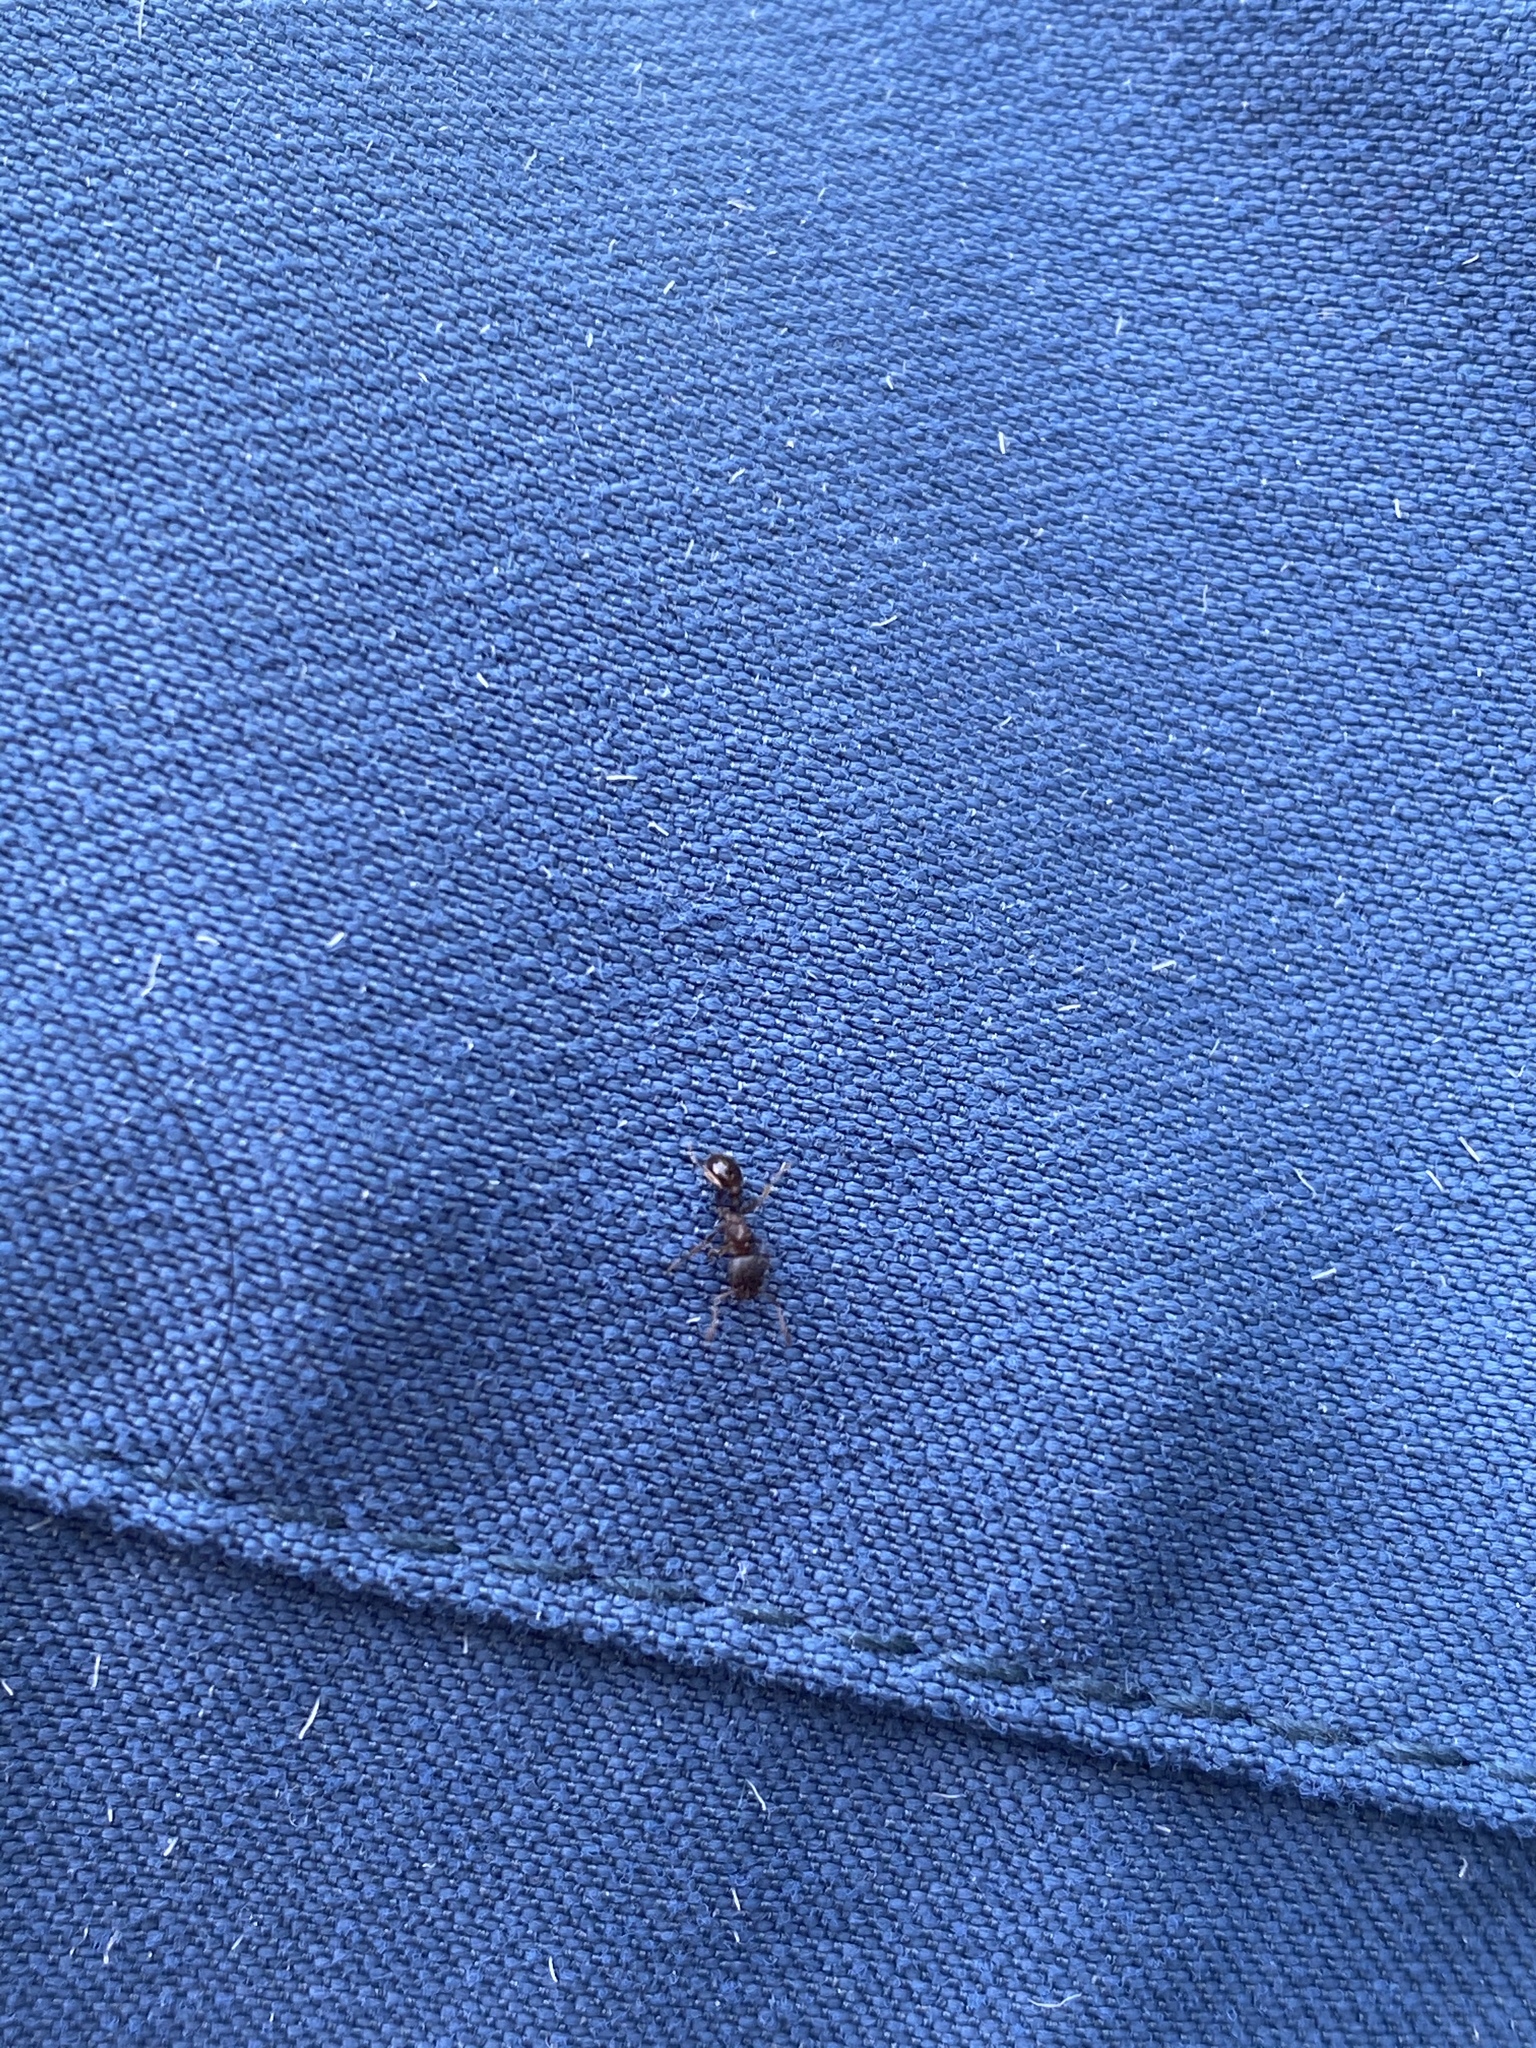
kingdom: Animalia
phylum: Arthropoda
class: Insecta
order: Hymenoptera
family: Formicidae
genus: Tetramorium
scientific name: Tetramorium immigrans
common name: Pavement ant
